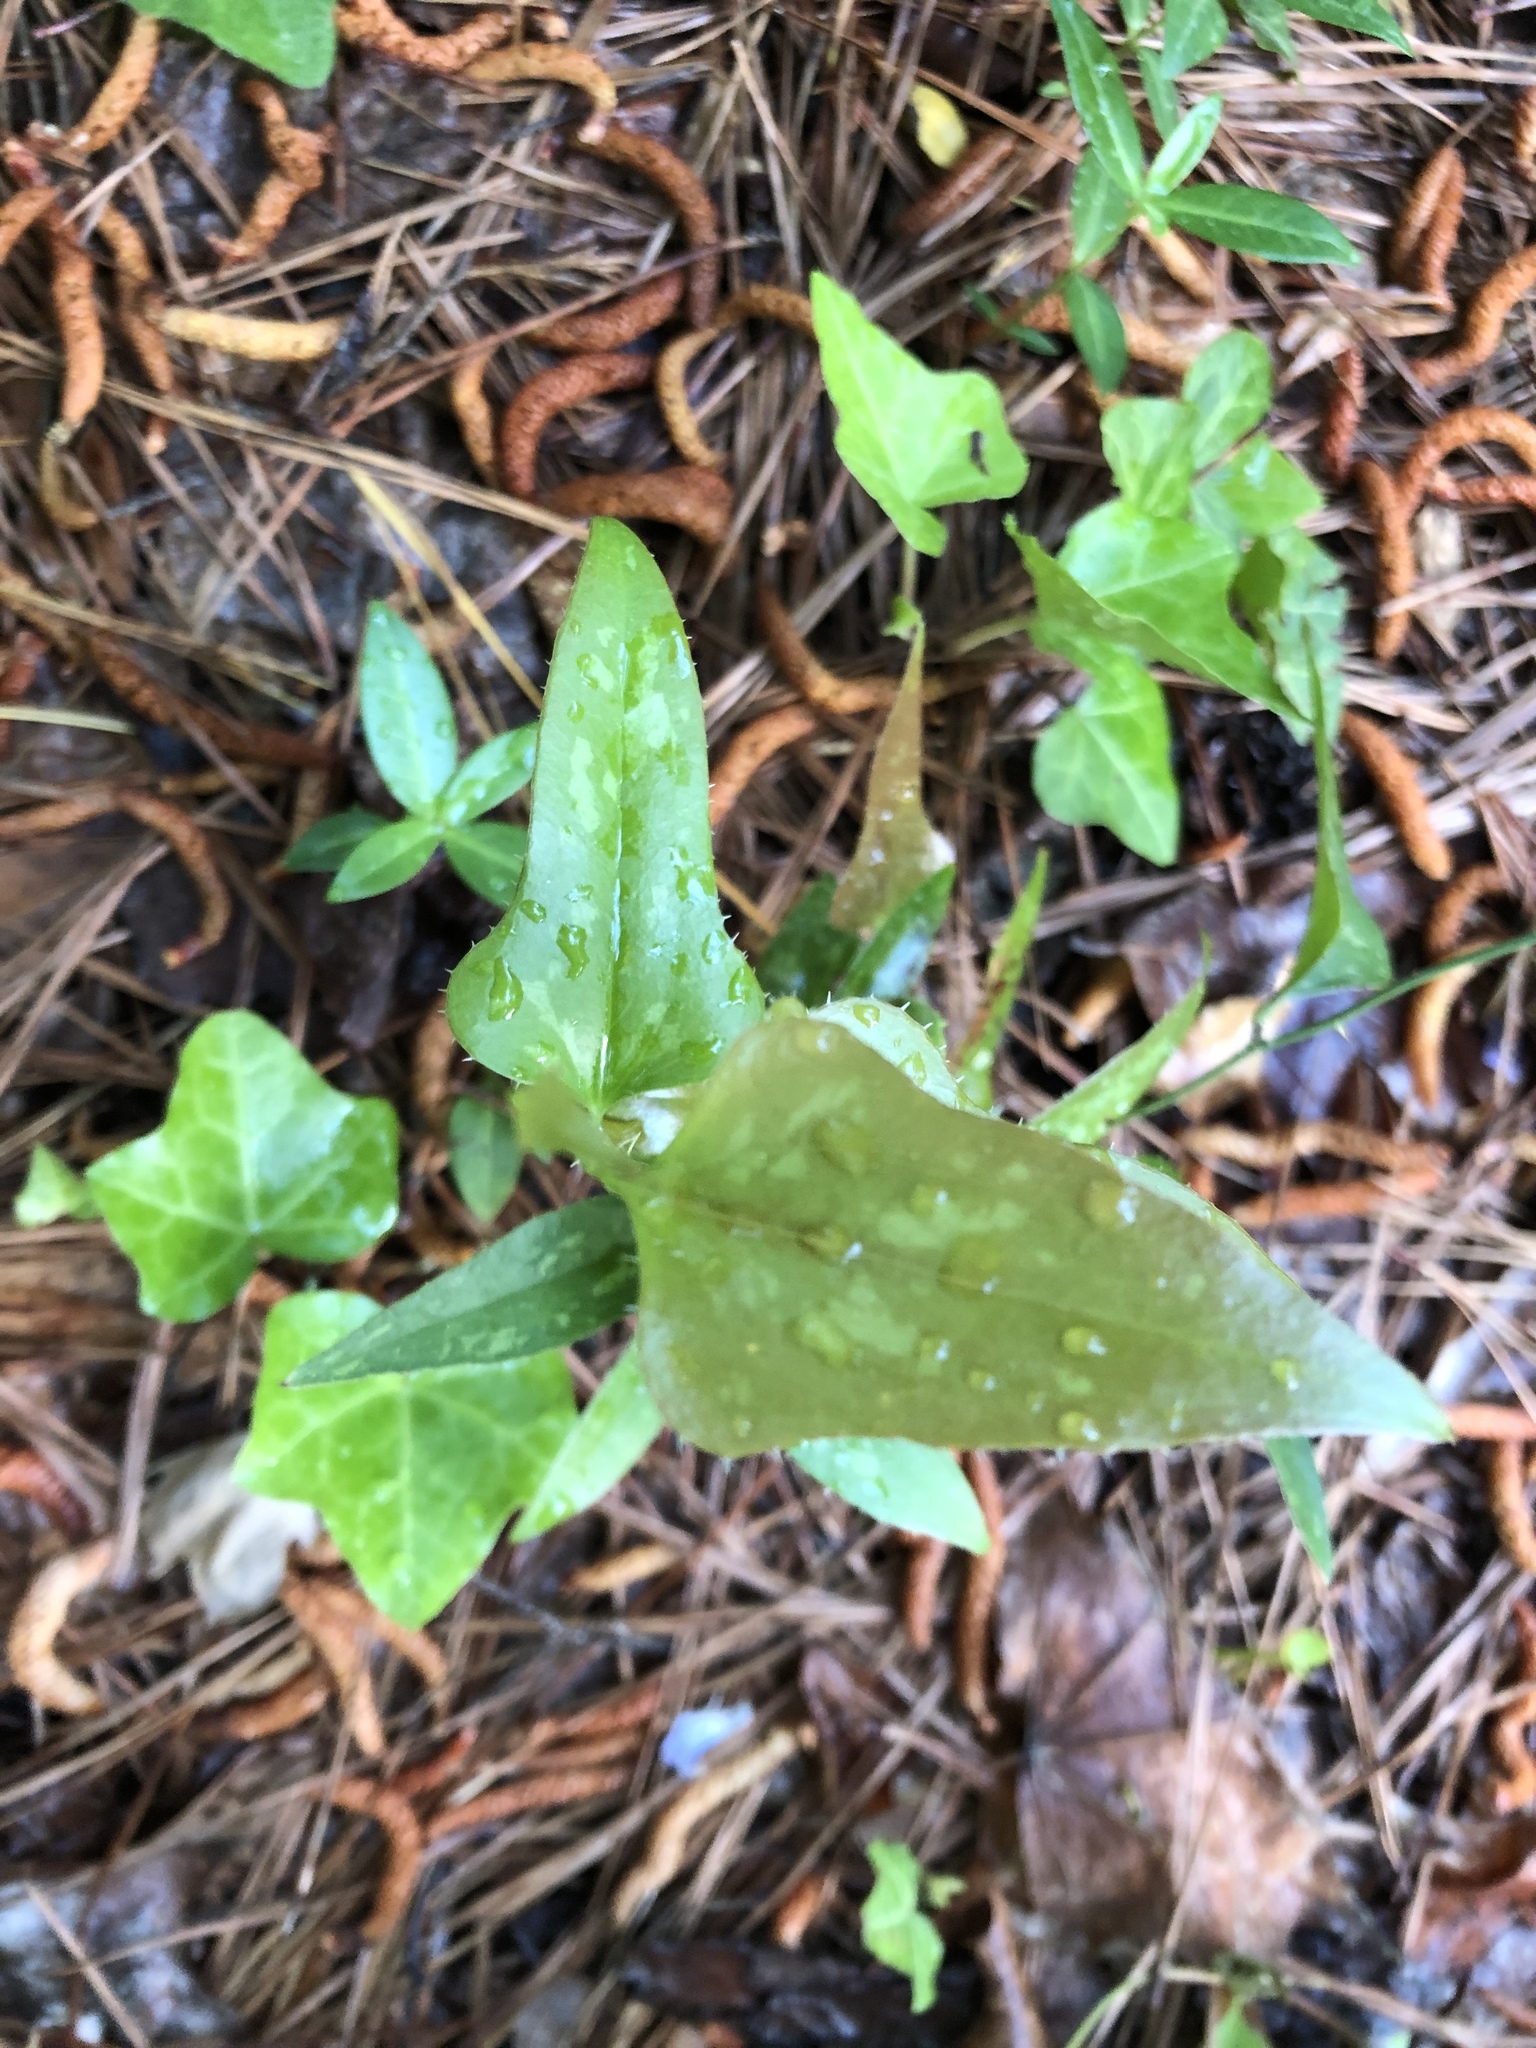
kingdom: Plantae
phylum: Tracheophyta
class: Liliopsida
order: Liliales
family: Smilacaceae
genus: Smilax
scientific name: Smilax bona-nox
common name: Catbrier
